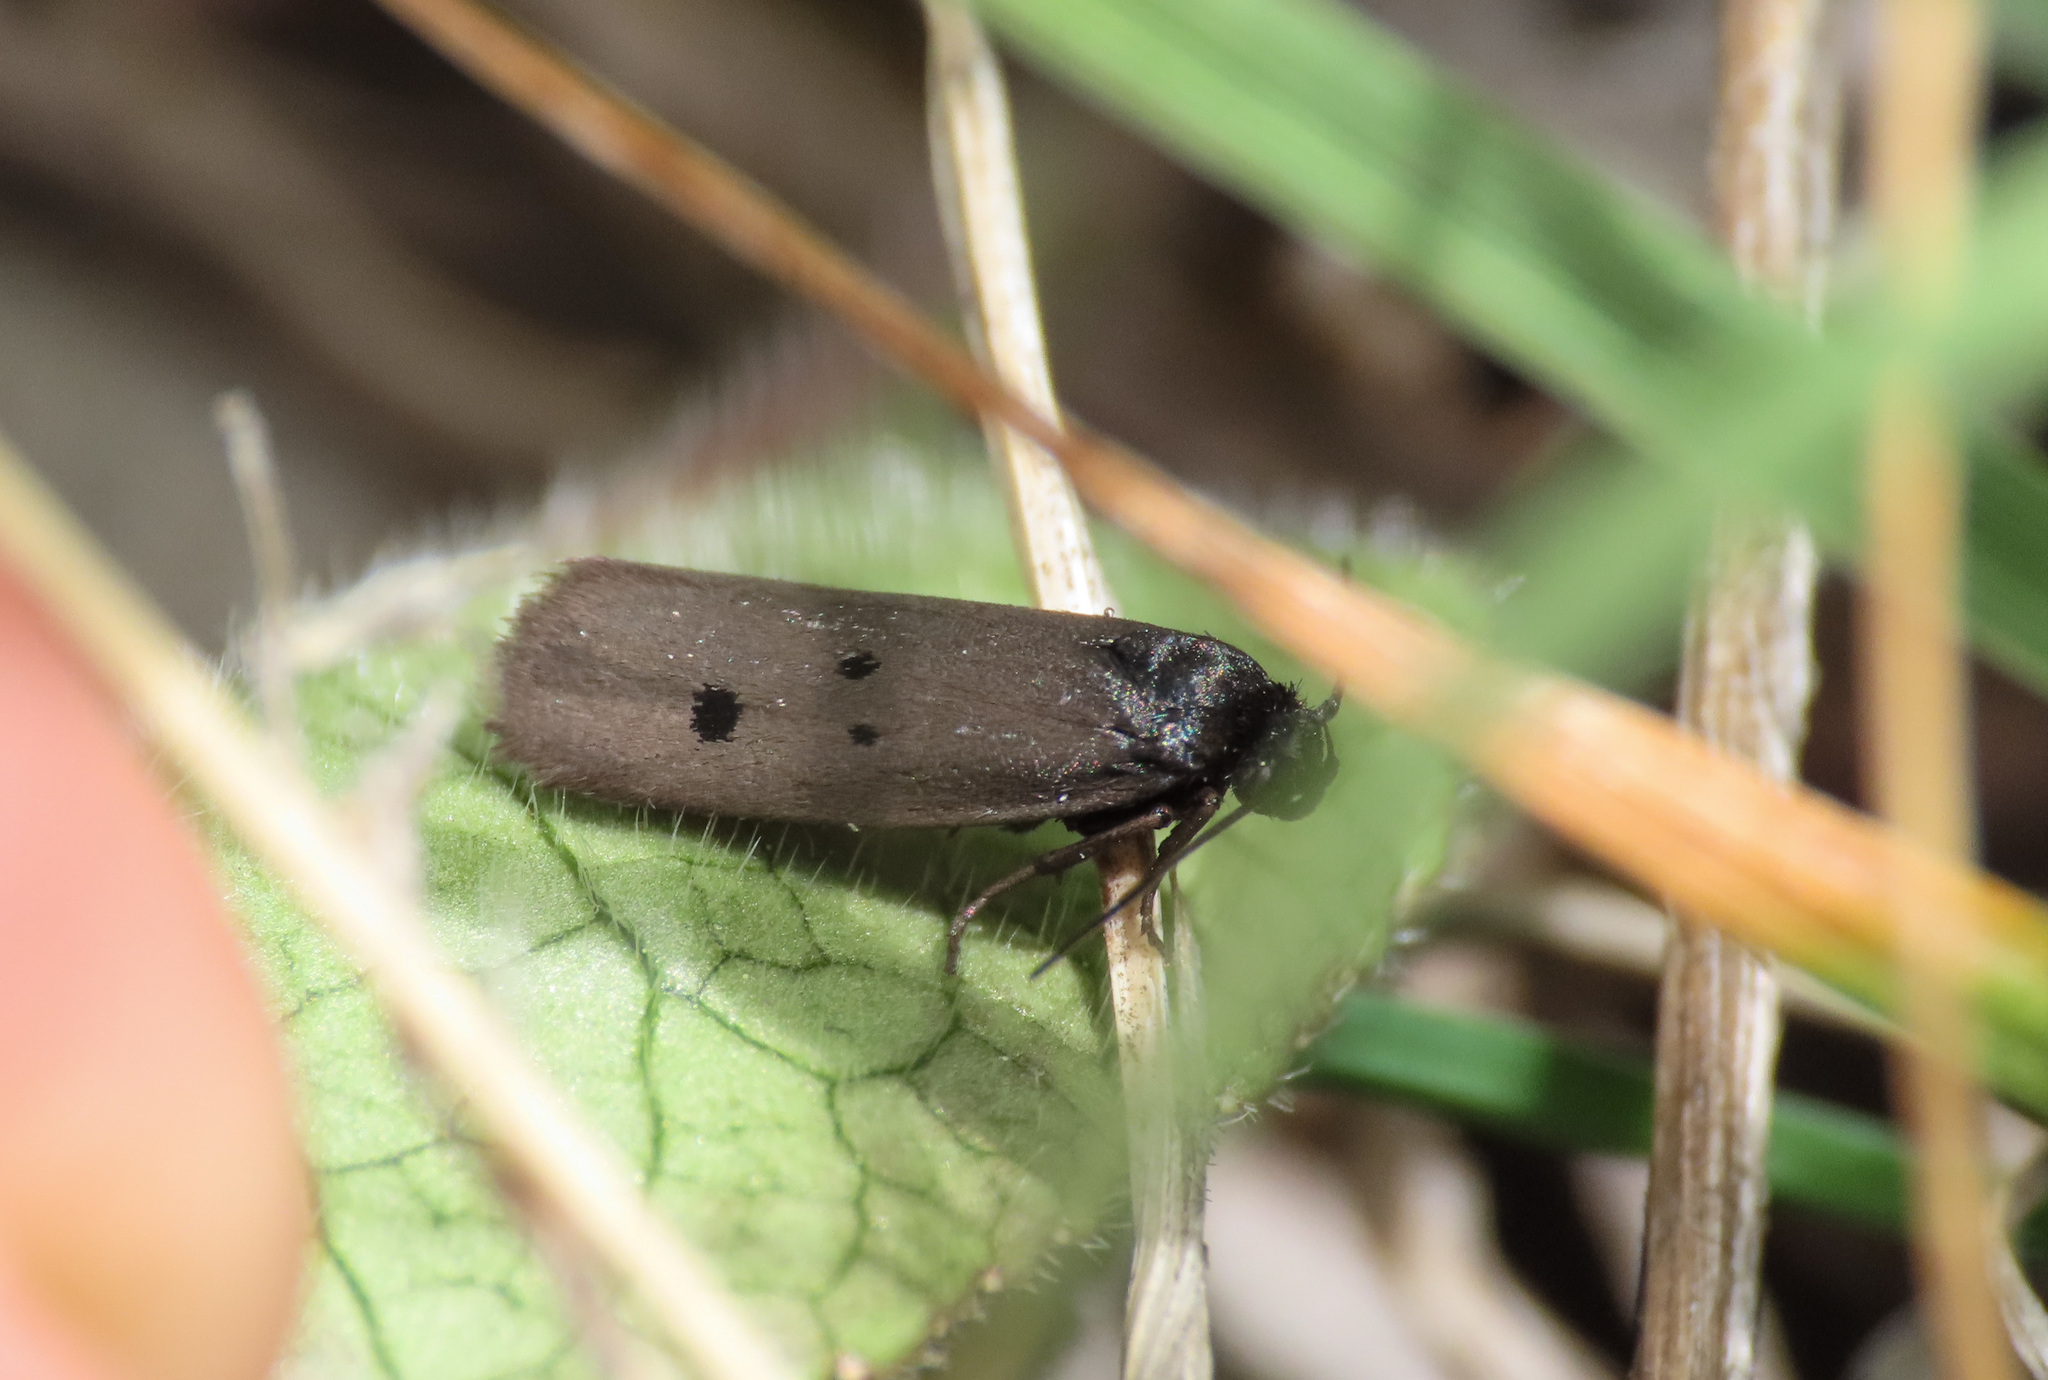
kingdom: Animalia
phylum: Arthropoda
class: Insecta
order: Lepidoptera
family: Ethmiidae
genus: Ethmia
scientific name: Ethmia chrysopyga
